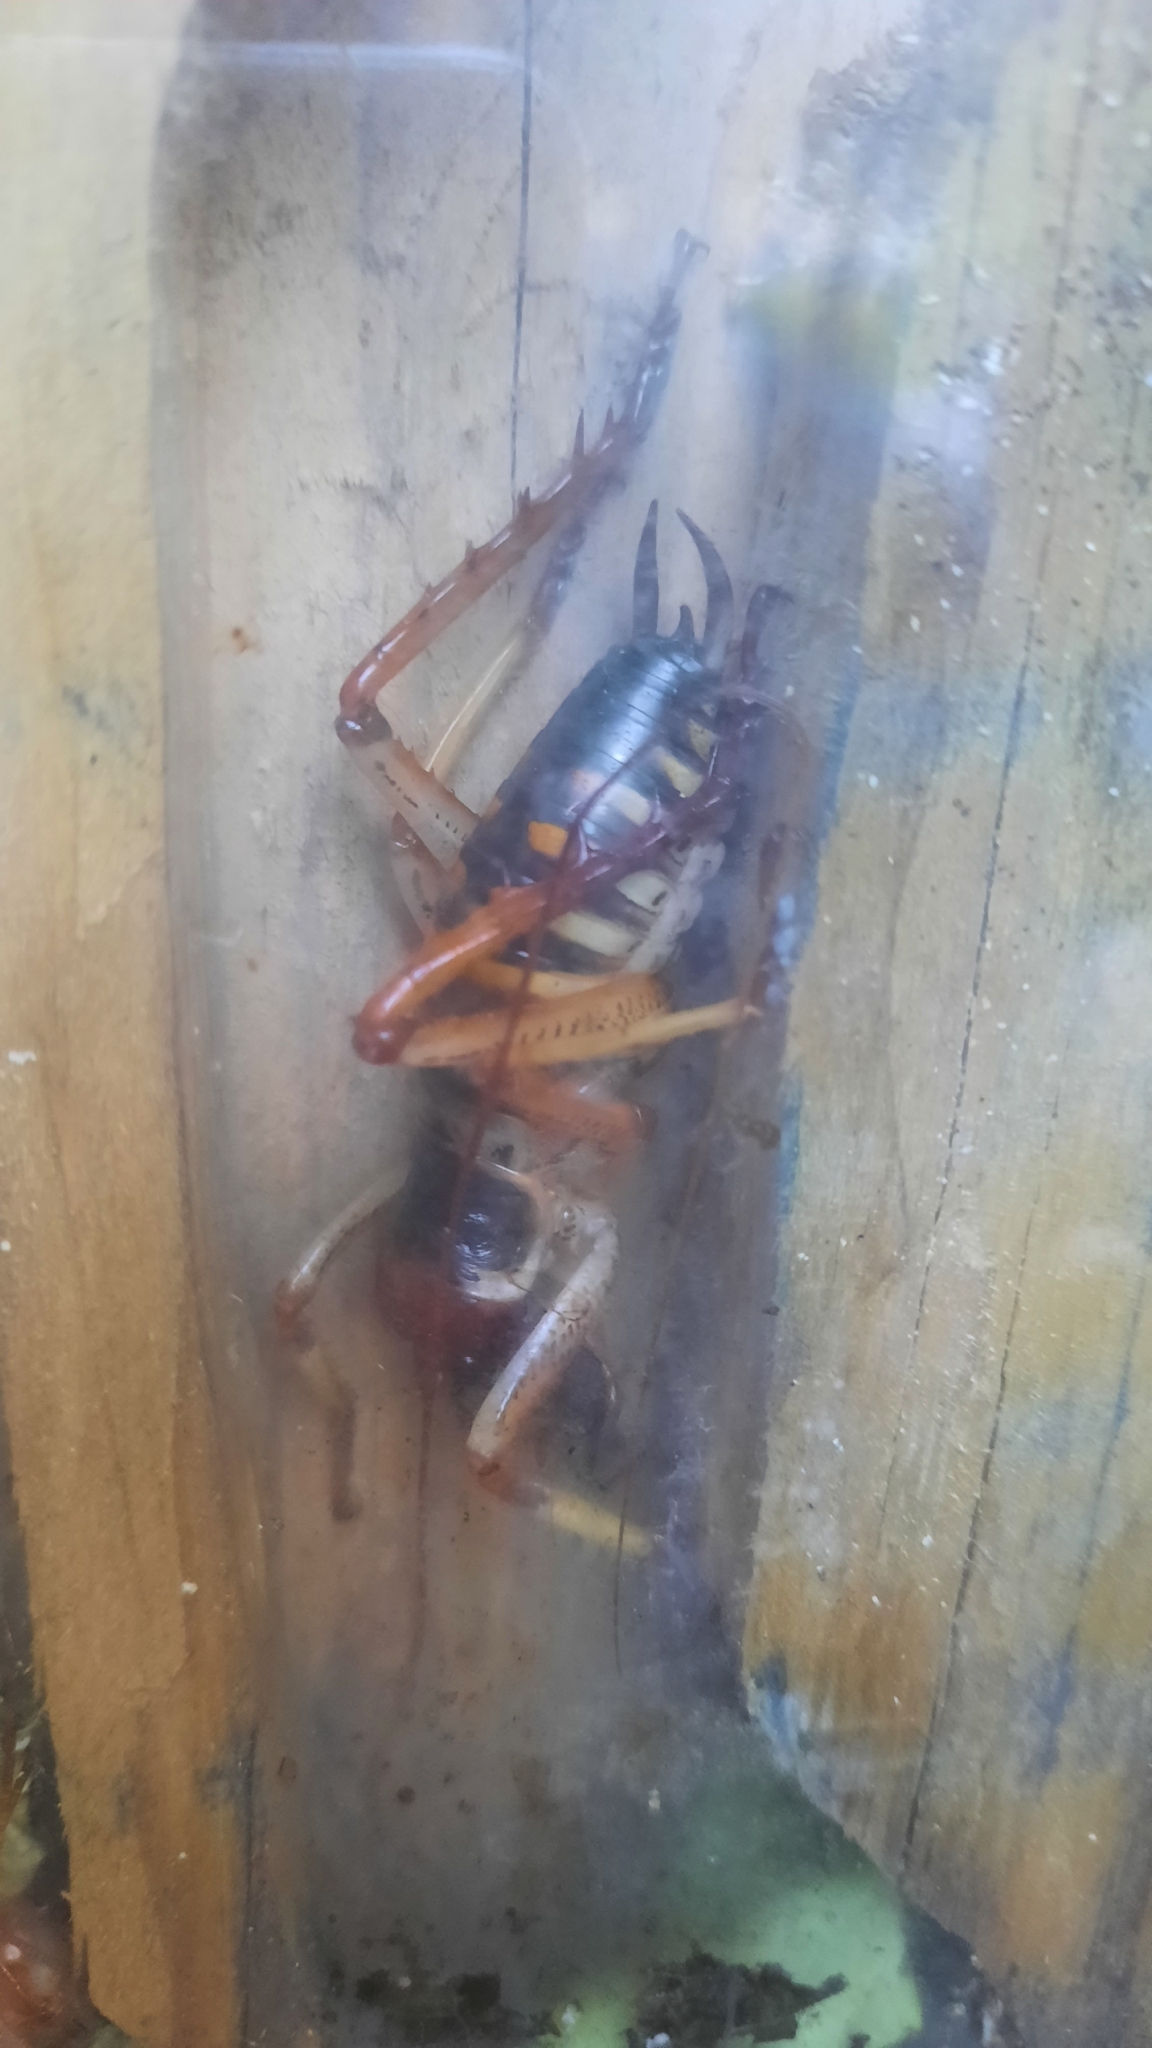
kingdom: Animalia
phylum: Arthropoda
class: Insecta
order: Orthoptera
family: Anostostomatidae
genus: Hemideina
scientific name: Hemideina crassidens
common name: Wellington tree weta
